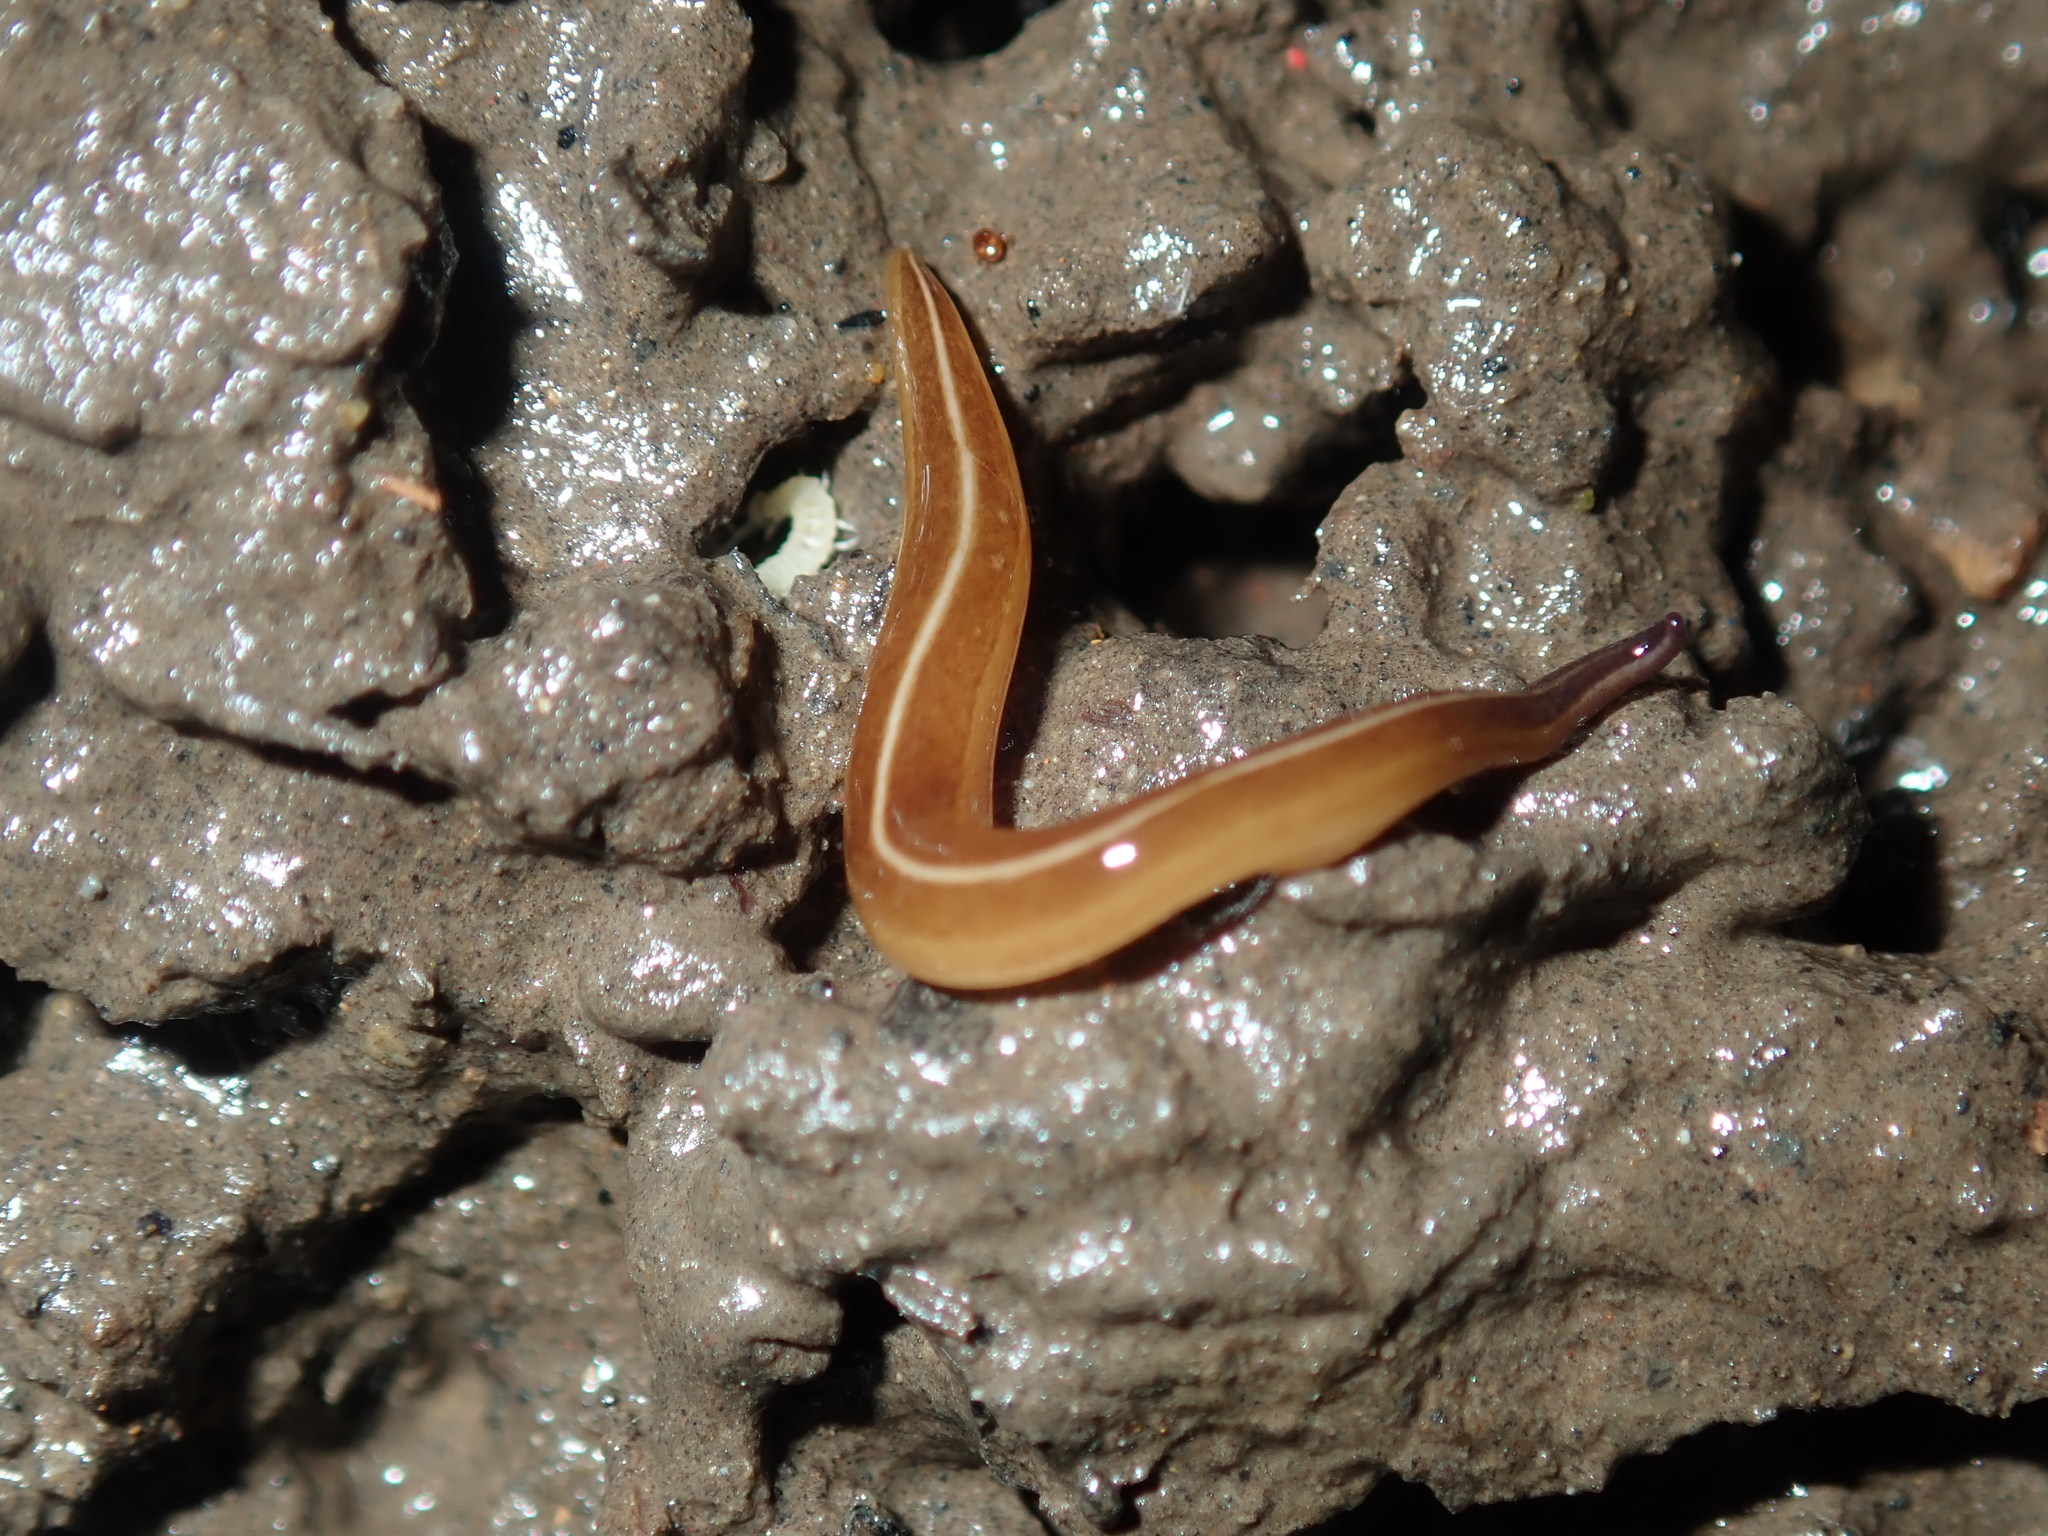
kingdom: Animalia
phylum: Platyhelminthes
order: Tricladida
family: Geoplanidae
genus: Australopacifica
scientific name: Australopacifica scaphoidea
